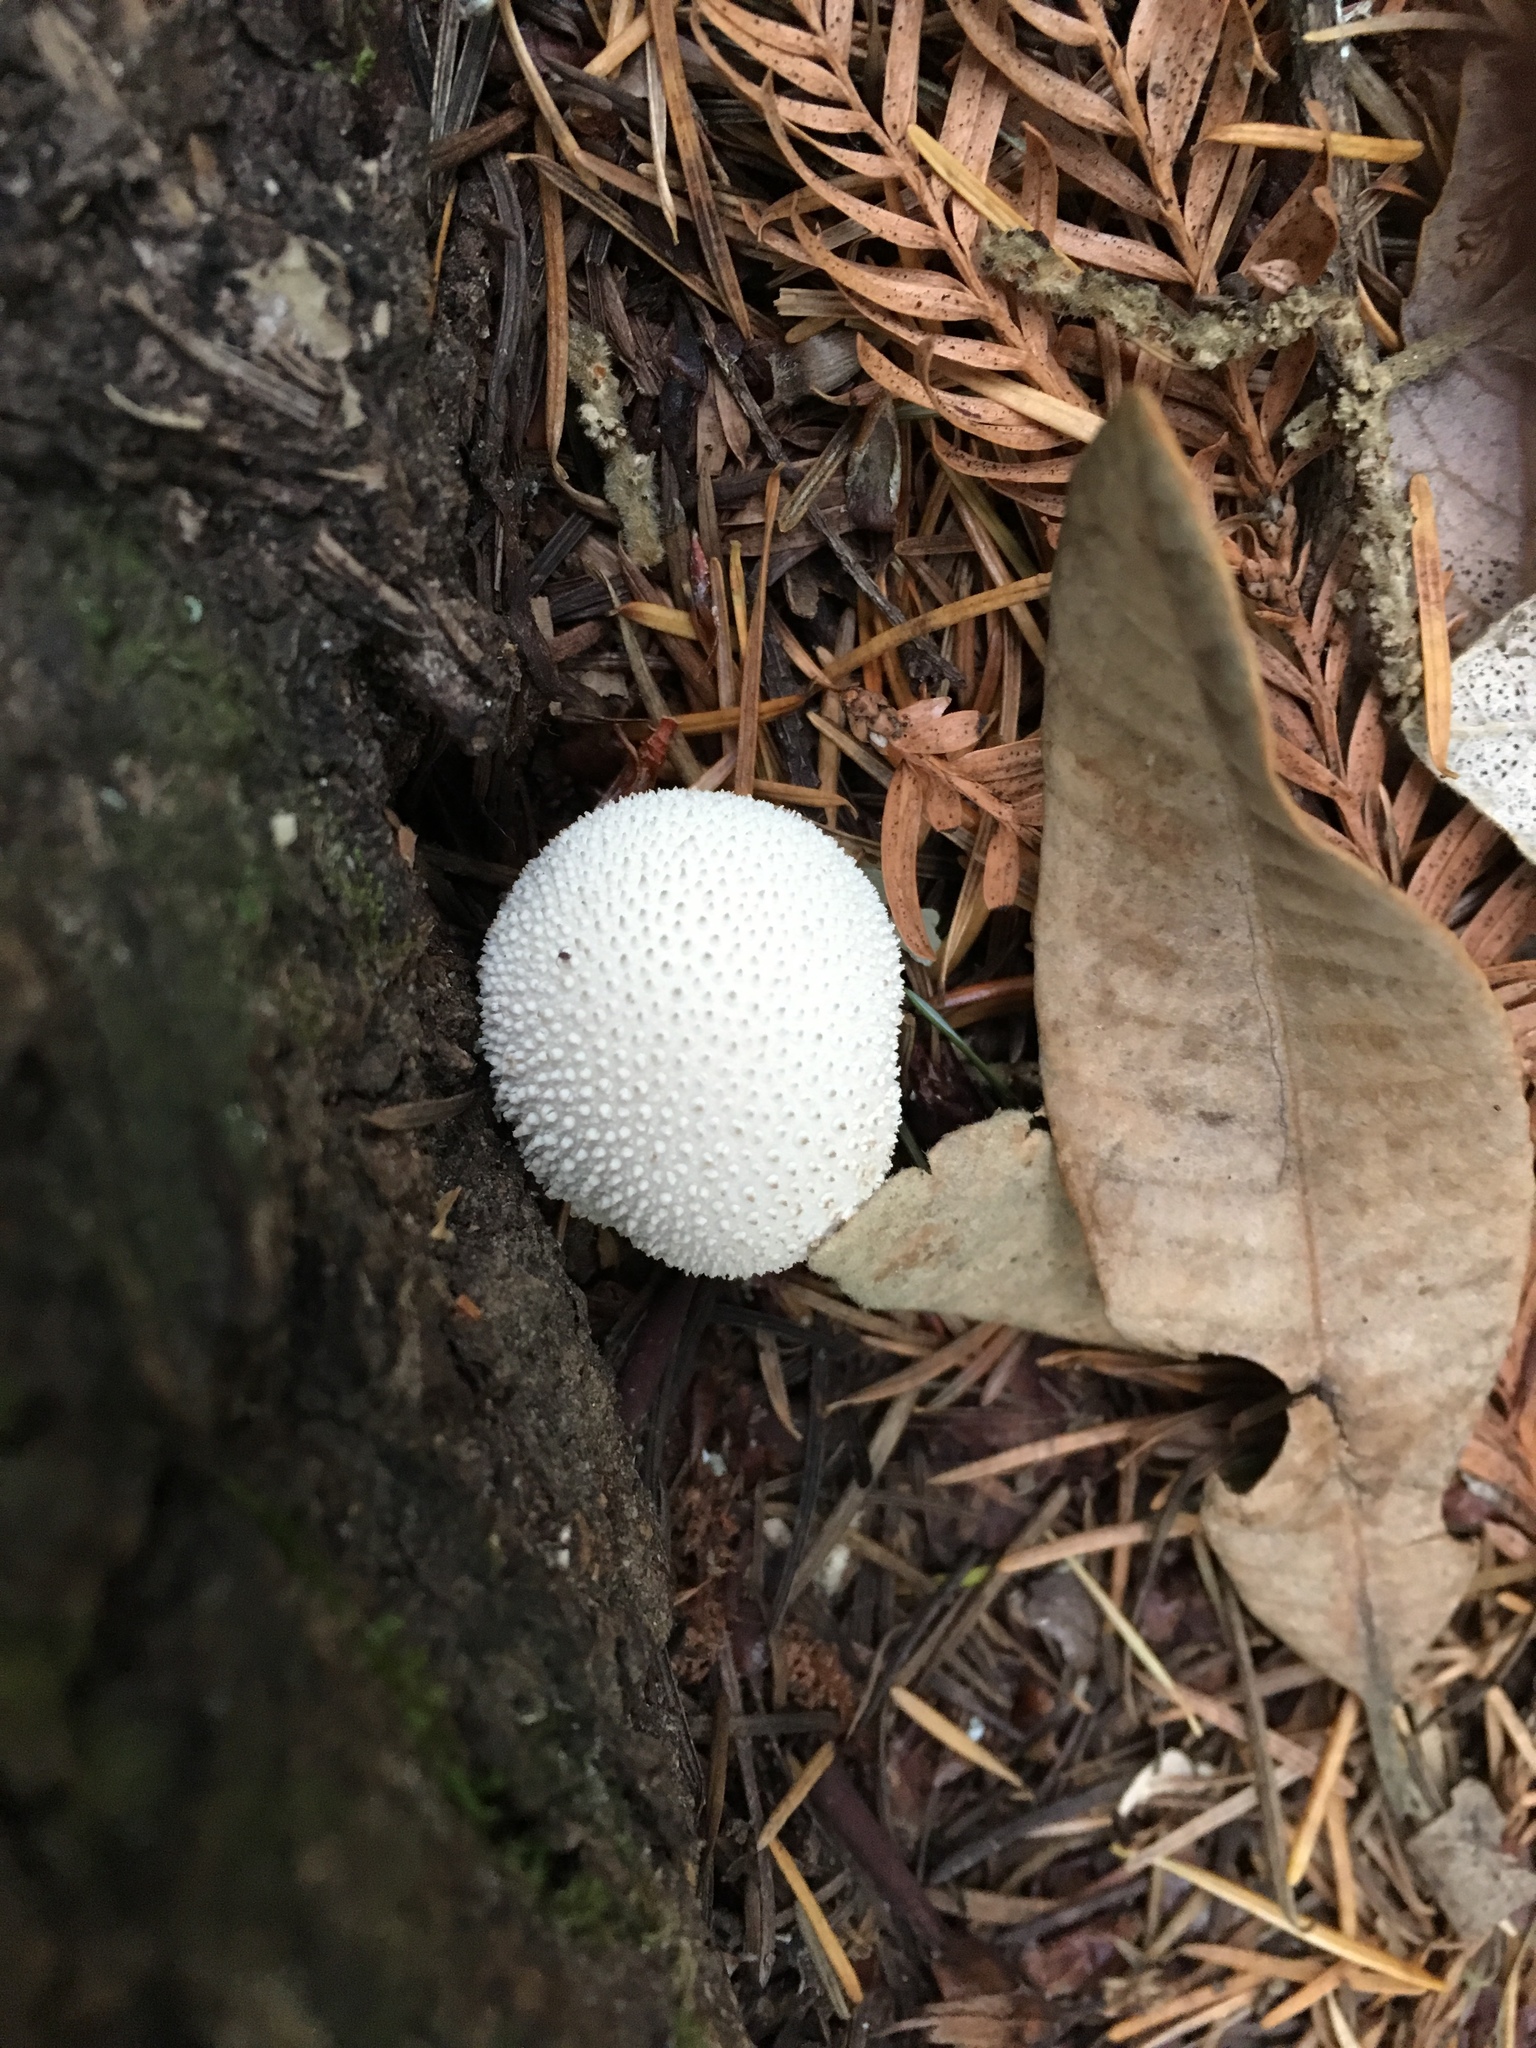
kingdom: Fungi
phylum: Basidiomycota
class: Agaricomycetes
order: Agaricales
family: Lycoperdaceae
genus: Lycoperdon
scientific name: Lycoperdon perlatum
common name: Common puffball
